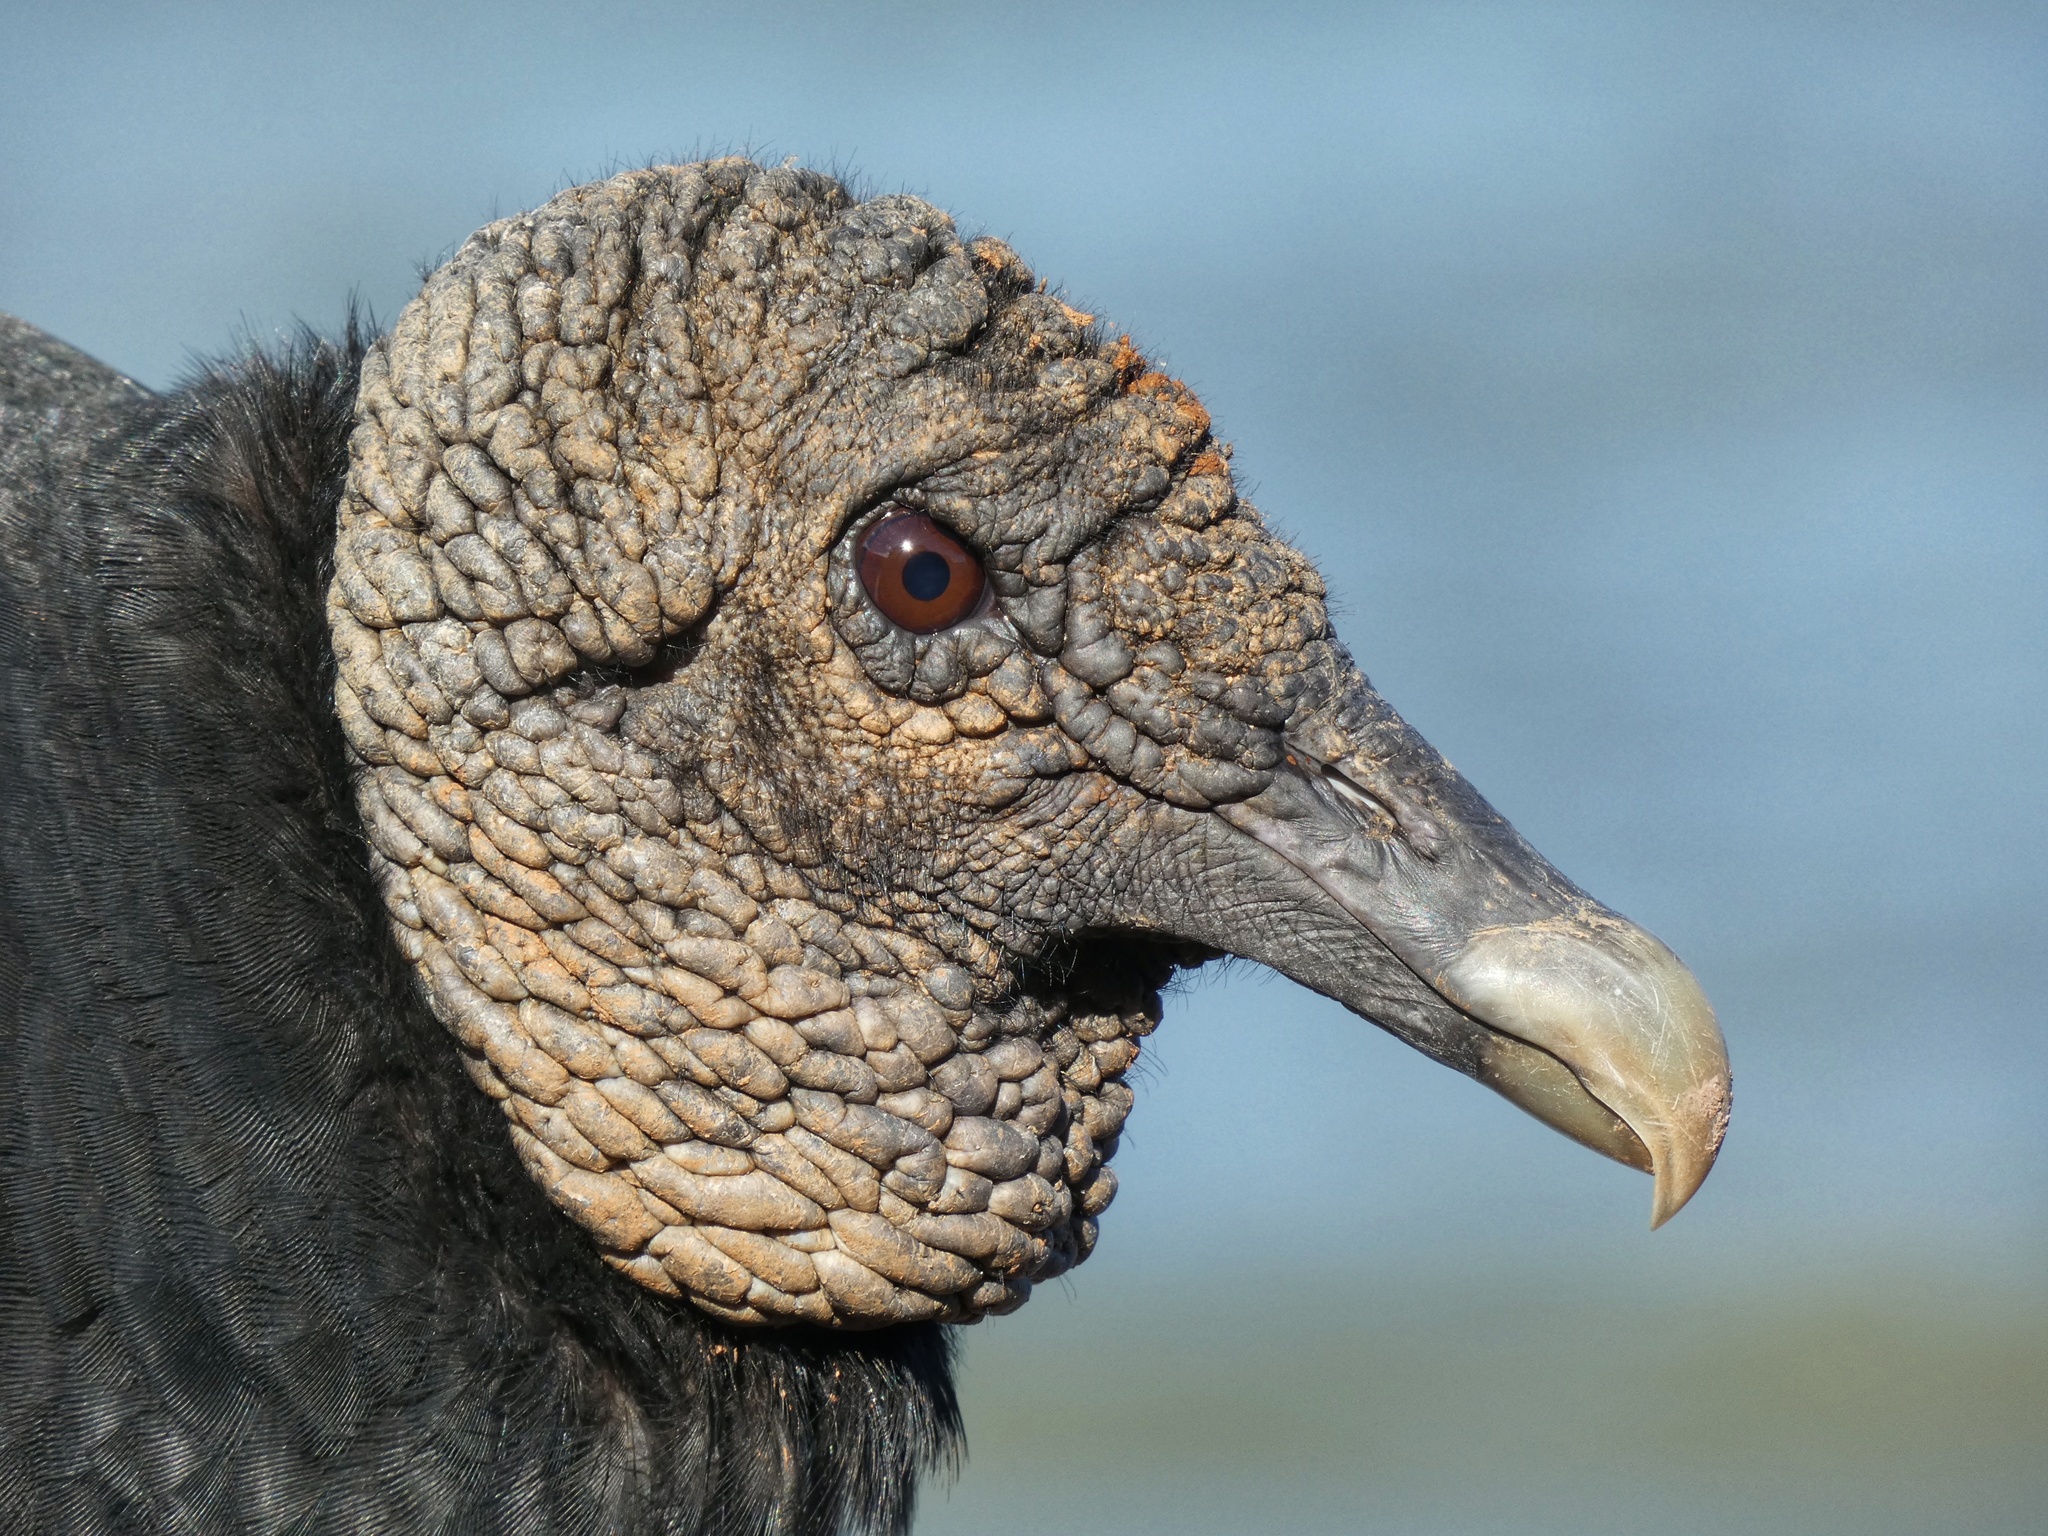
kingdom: Animalia
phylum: Chordata
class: Aves
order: Accipitriformes
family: Cathartidae
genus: Coragyps
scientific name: Coragyps atratus
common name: Black vulture
